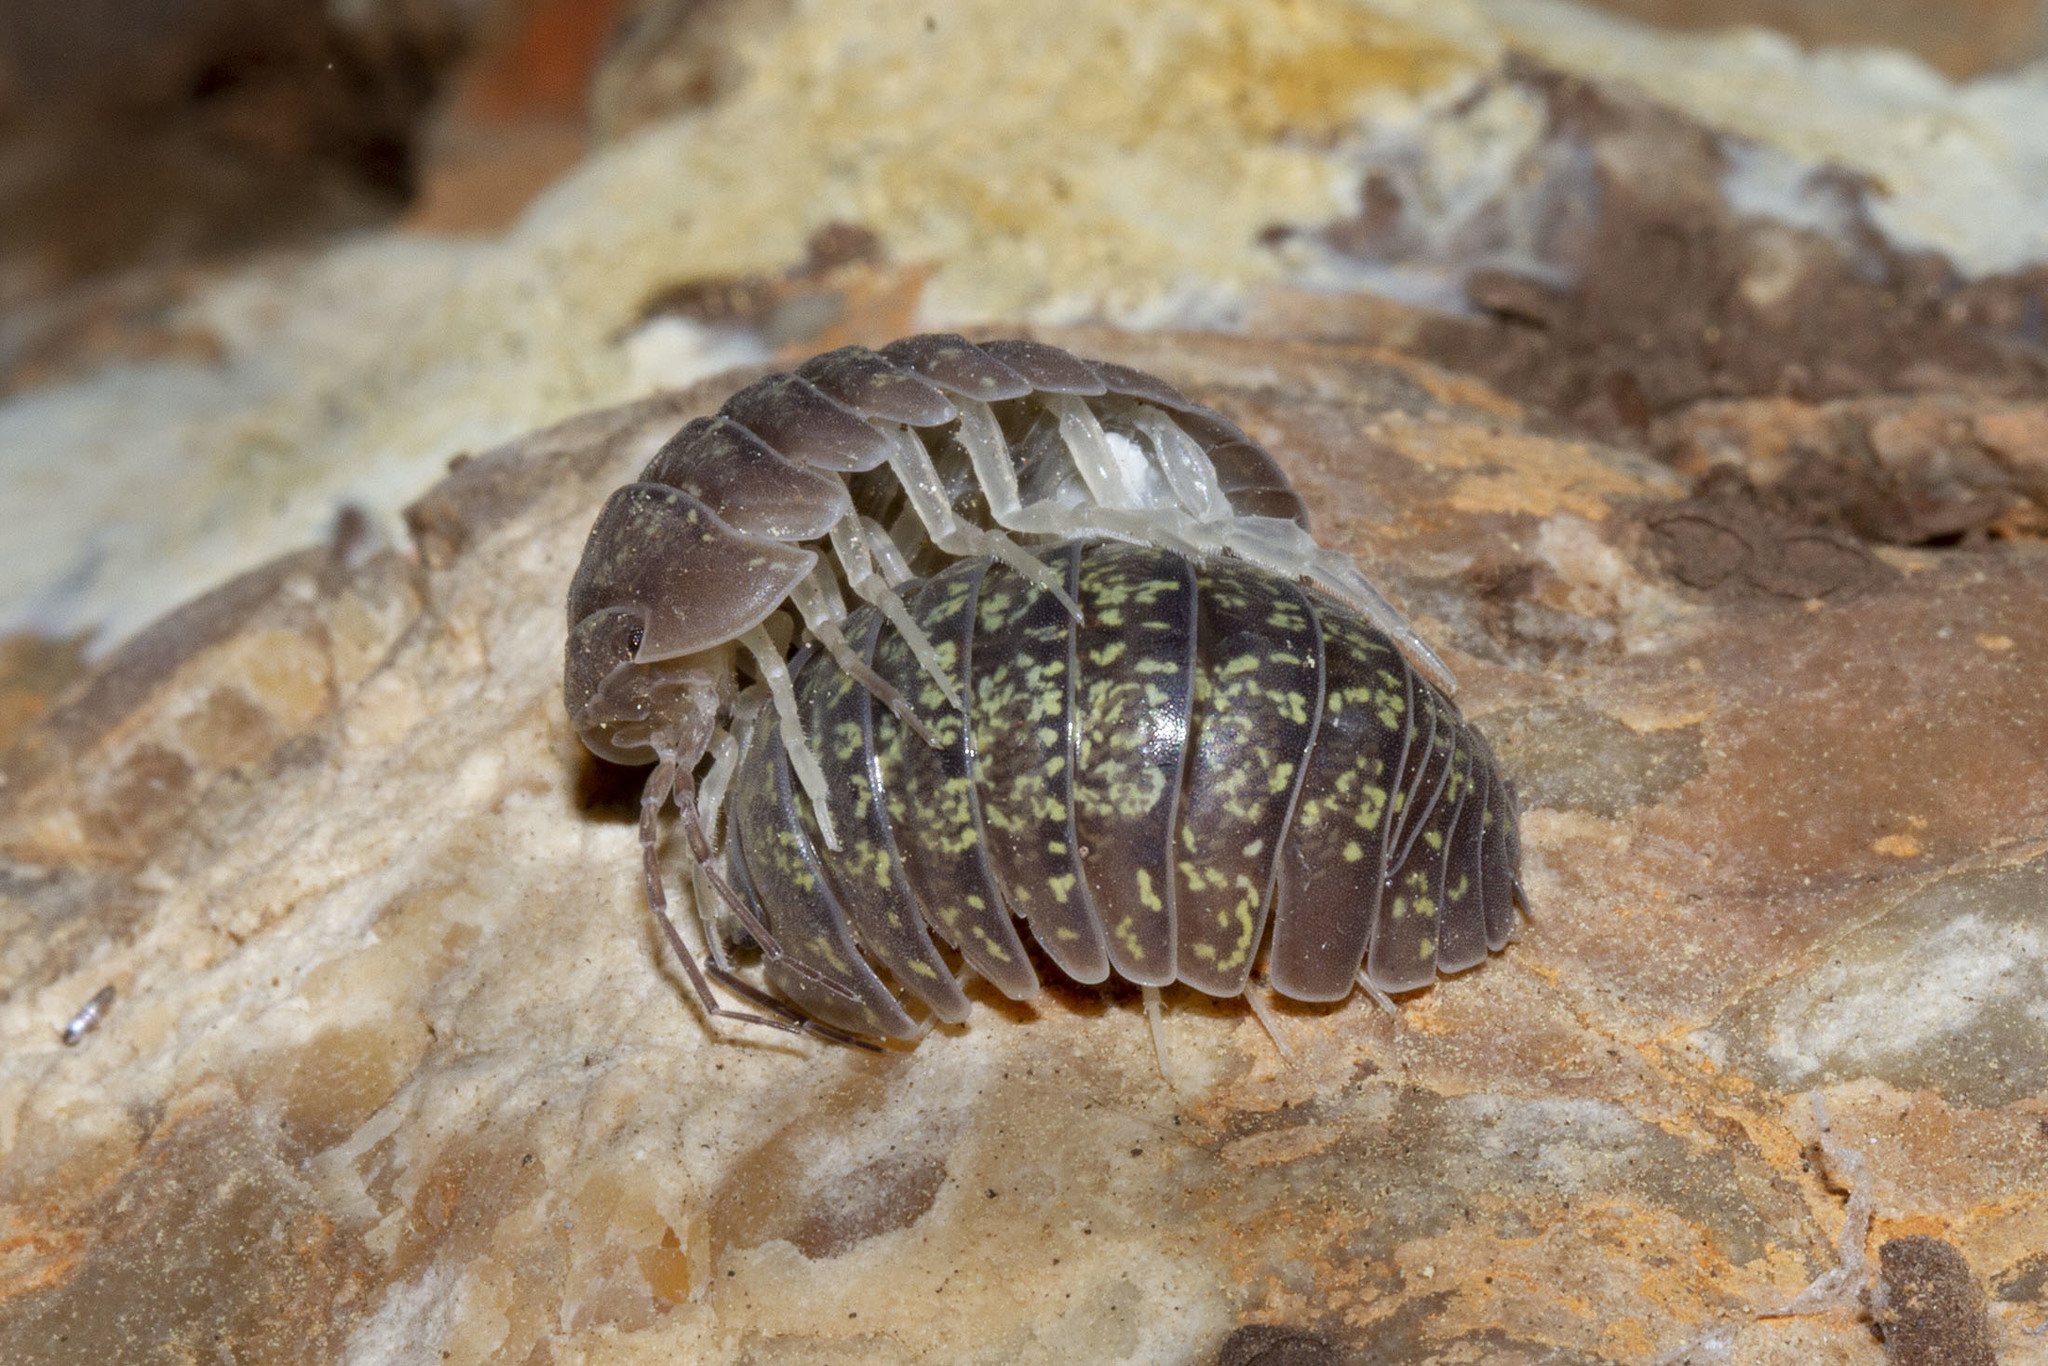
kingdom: Animalia
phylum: Arthropoda
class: Malacostraca
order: Isopoda
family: Armadillidiidae
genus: Armadillidium
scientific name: Armadillidium ameglioi
